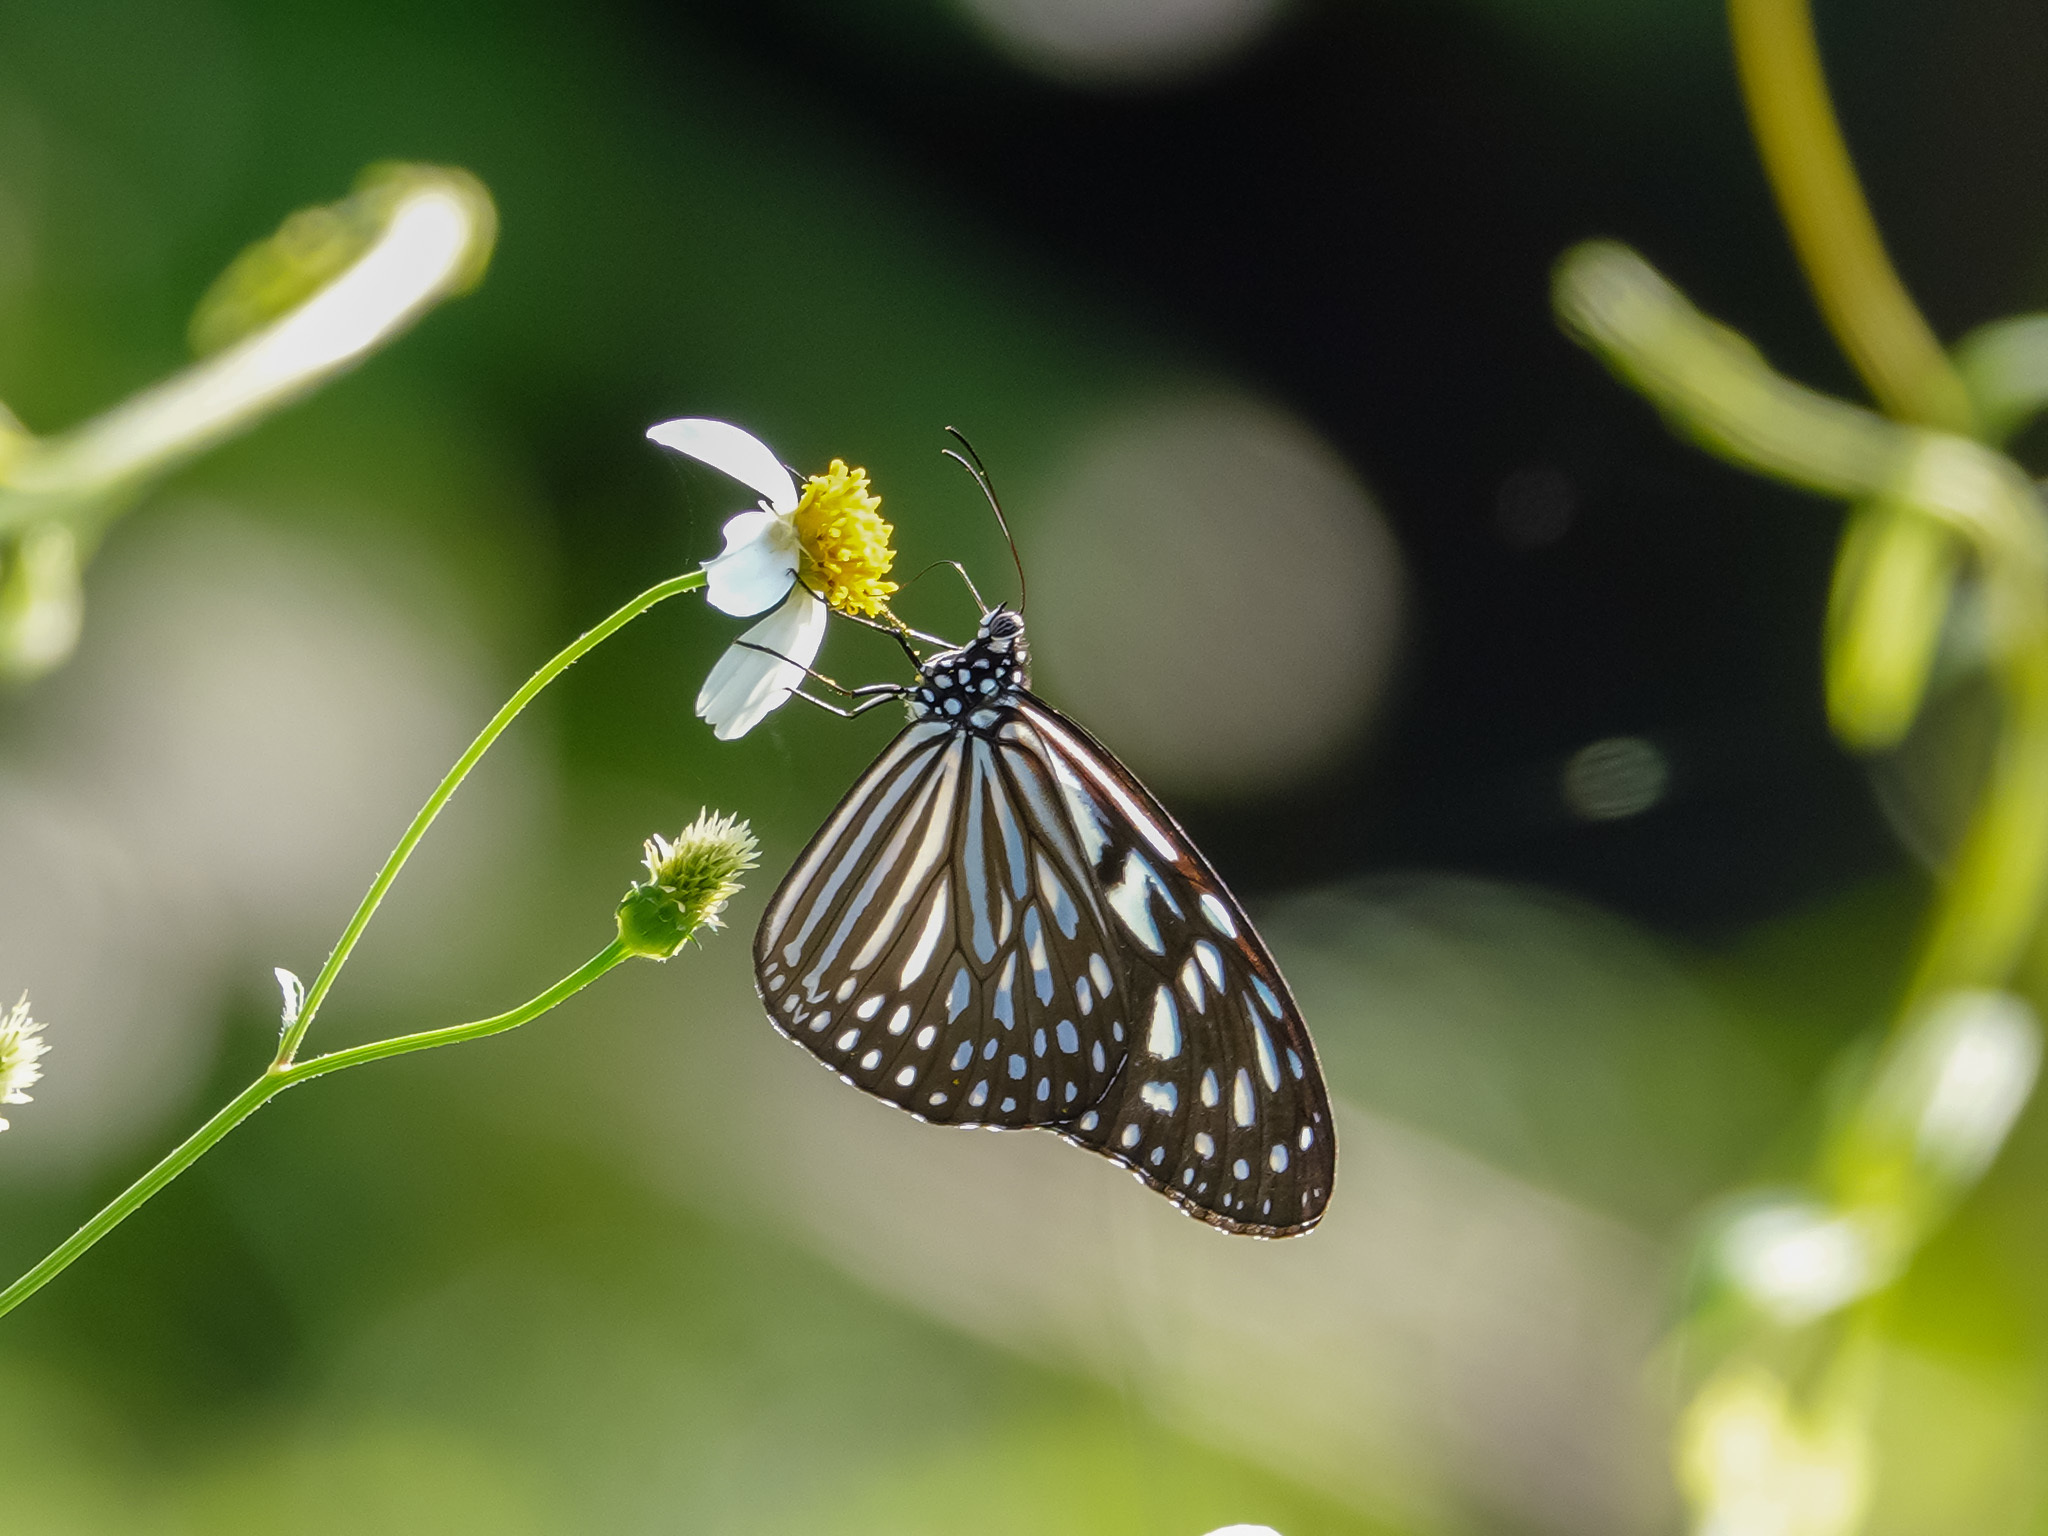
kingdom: Animalia
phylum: Arthropoda
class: Insecta
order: Lepidoptera
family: Nymphalidae
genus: Ideopsis
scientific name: Ideopsis vulgaris
